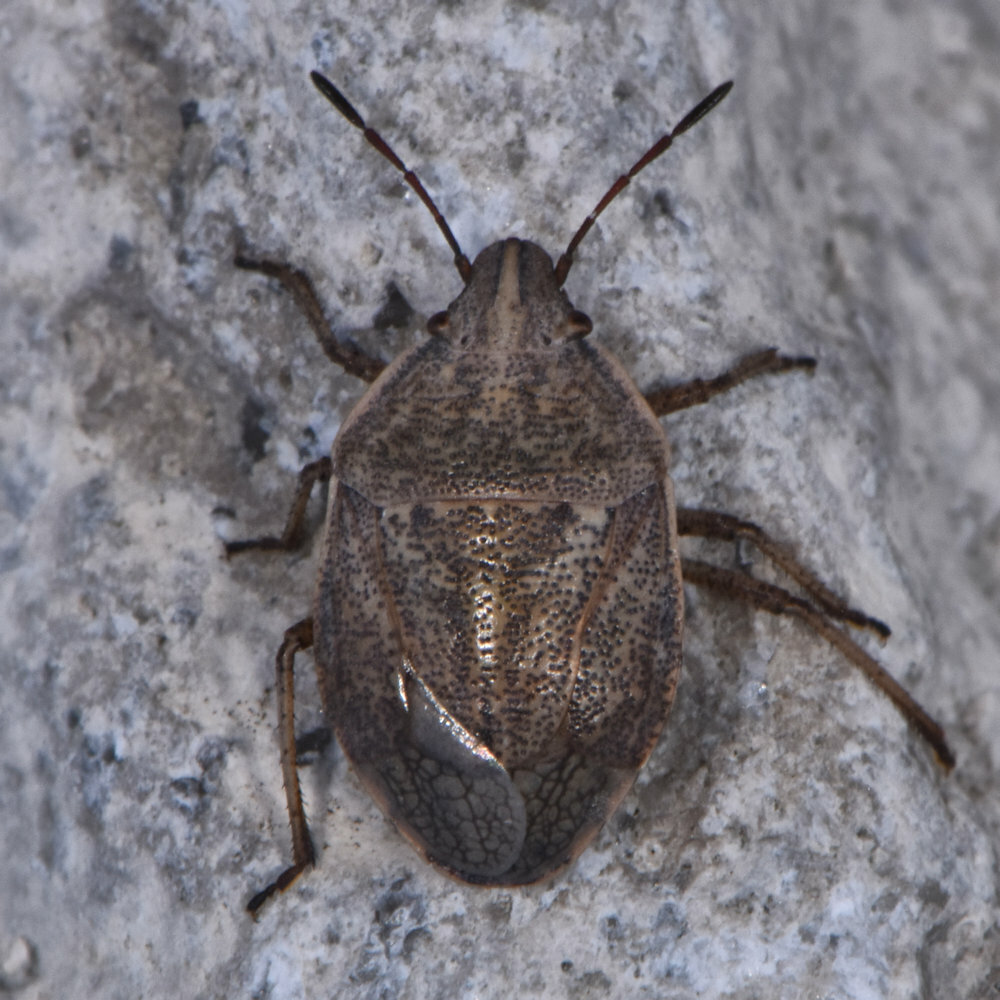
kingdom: Animalia
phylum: Arthropoda
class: Insecta
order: Hemiptera
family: Pentatomidae
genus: Coenus
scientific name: Coenus delius
